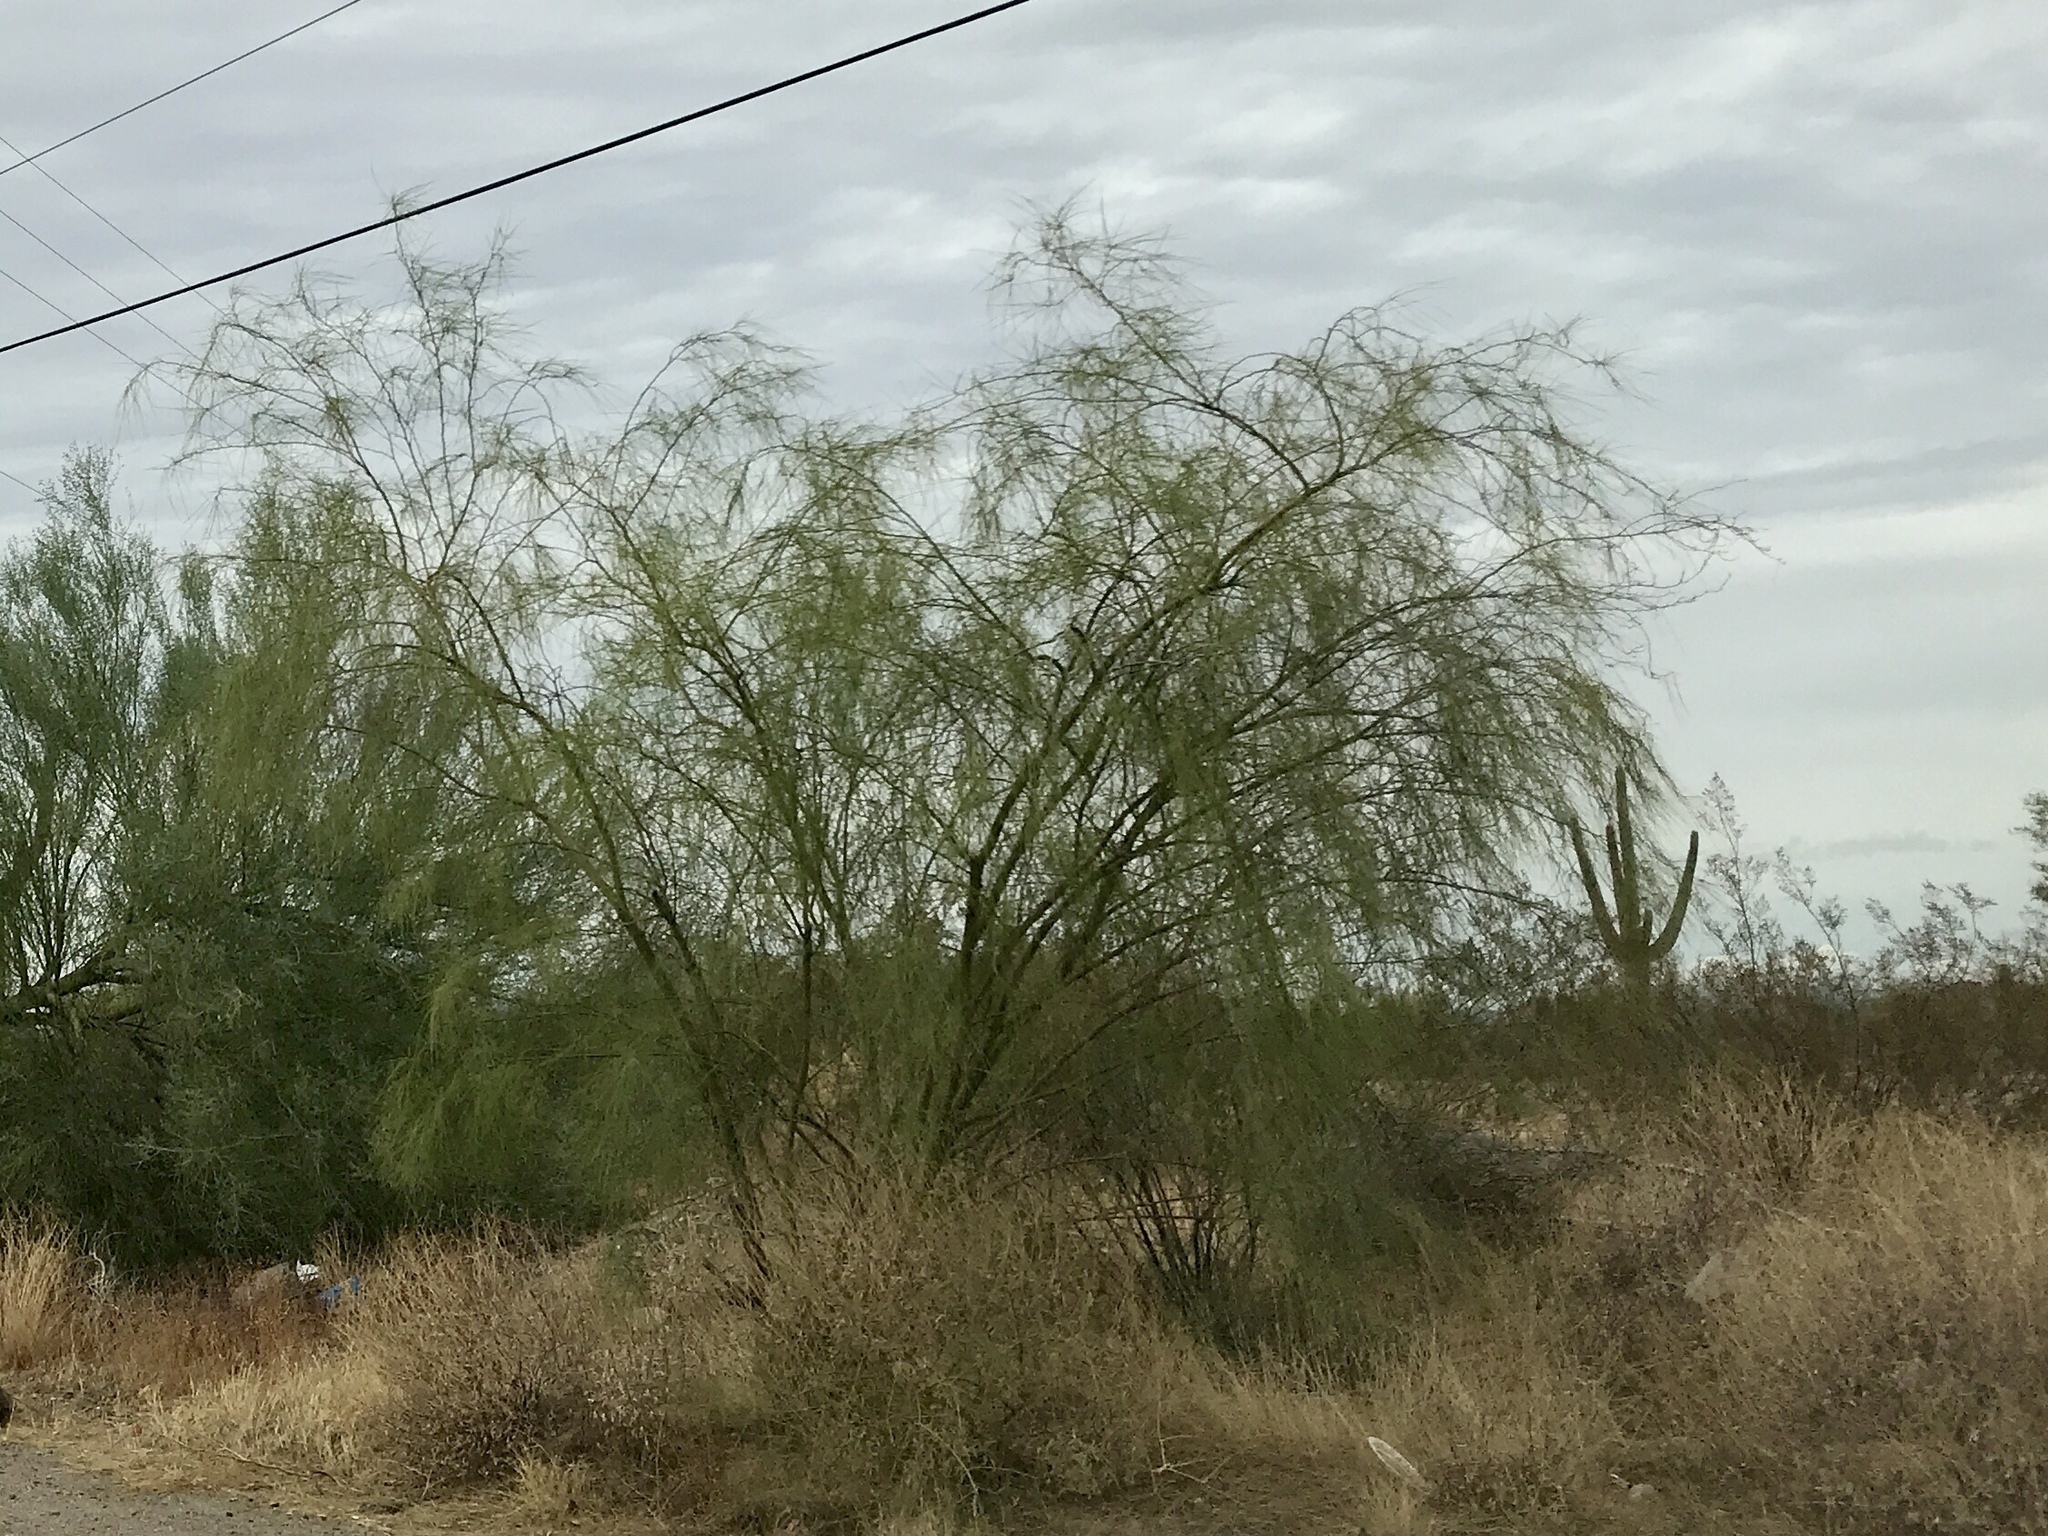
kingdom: Plantae
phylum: Tracheophyta
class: Magnoliopsida
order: Fabales
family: Fabaceae
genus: Parkinsonia
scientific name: Parkinsonia aculeata
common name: Jerusalem thorn
